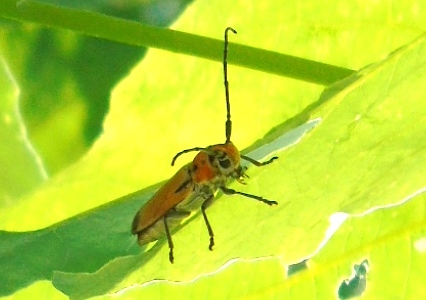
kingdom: Animalia
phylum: Arthropoda
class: Insecta
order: Coleoptera
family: Cerambycidae
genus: Essostrutha
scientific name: Essostrutha laeta
